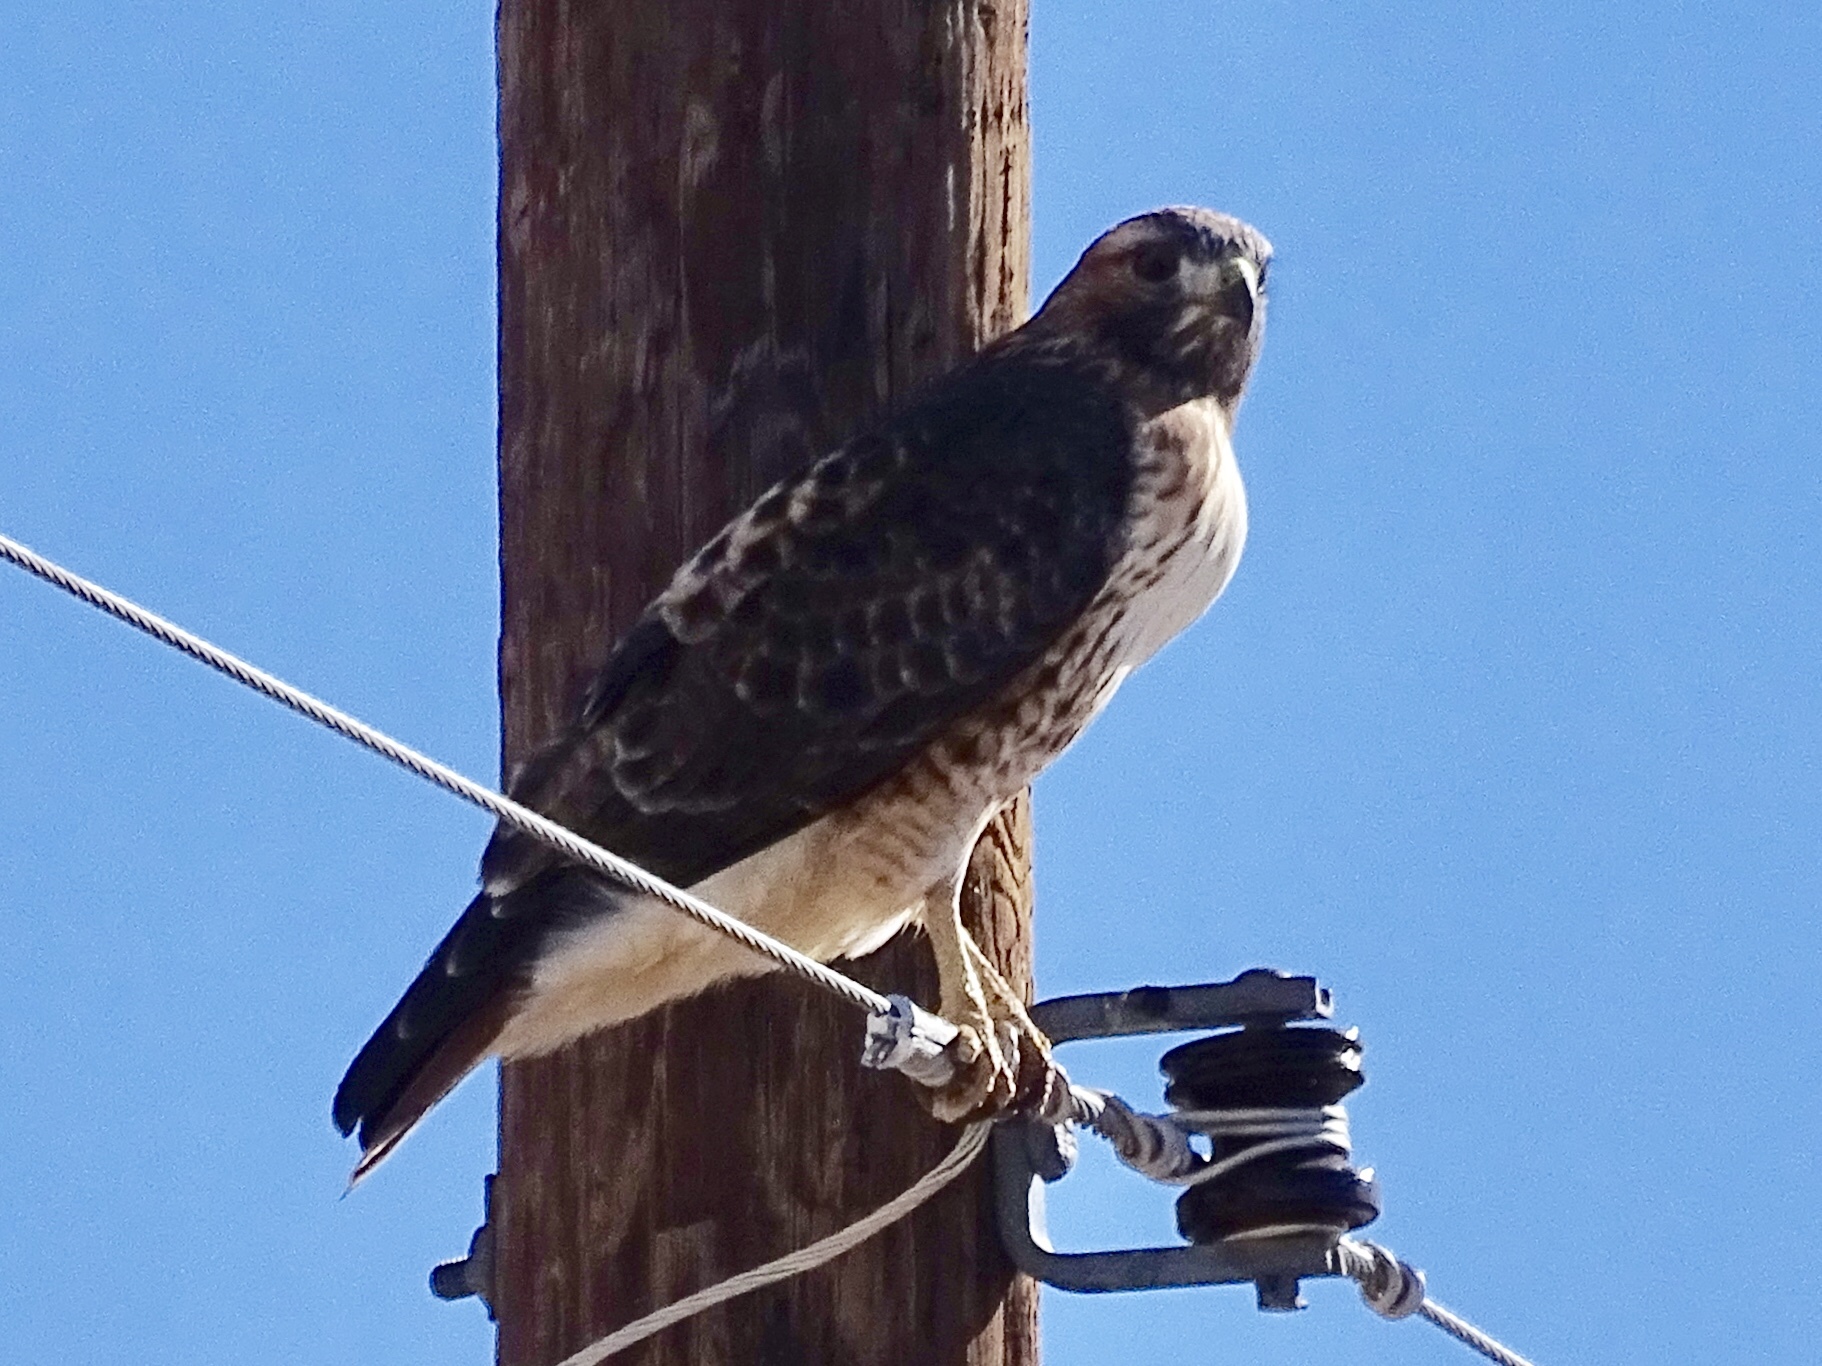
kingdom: Animalia
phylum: Chordata
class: Aves
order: Accipitriformes
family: Accipitridae
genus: Buteo
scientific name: Buteo jamaicensis
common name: Red-tailed hawk
